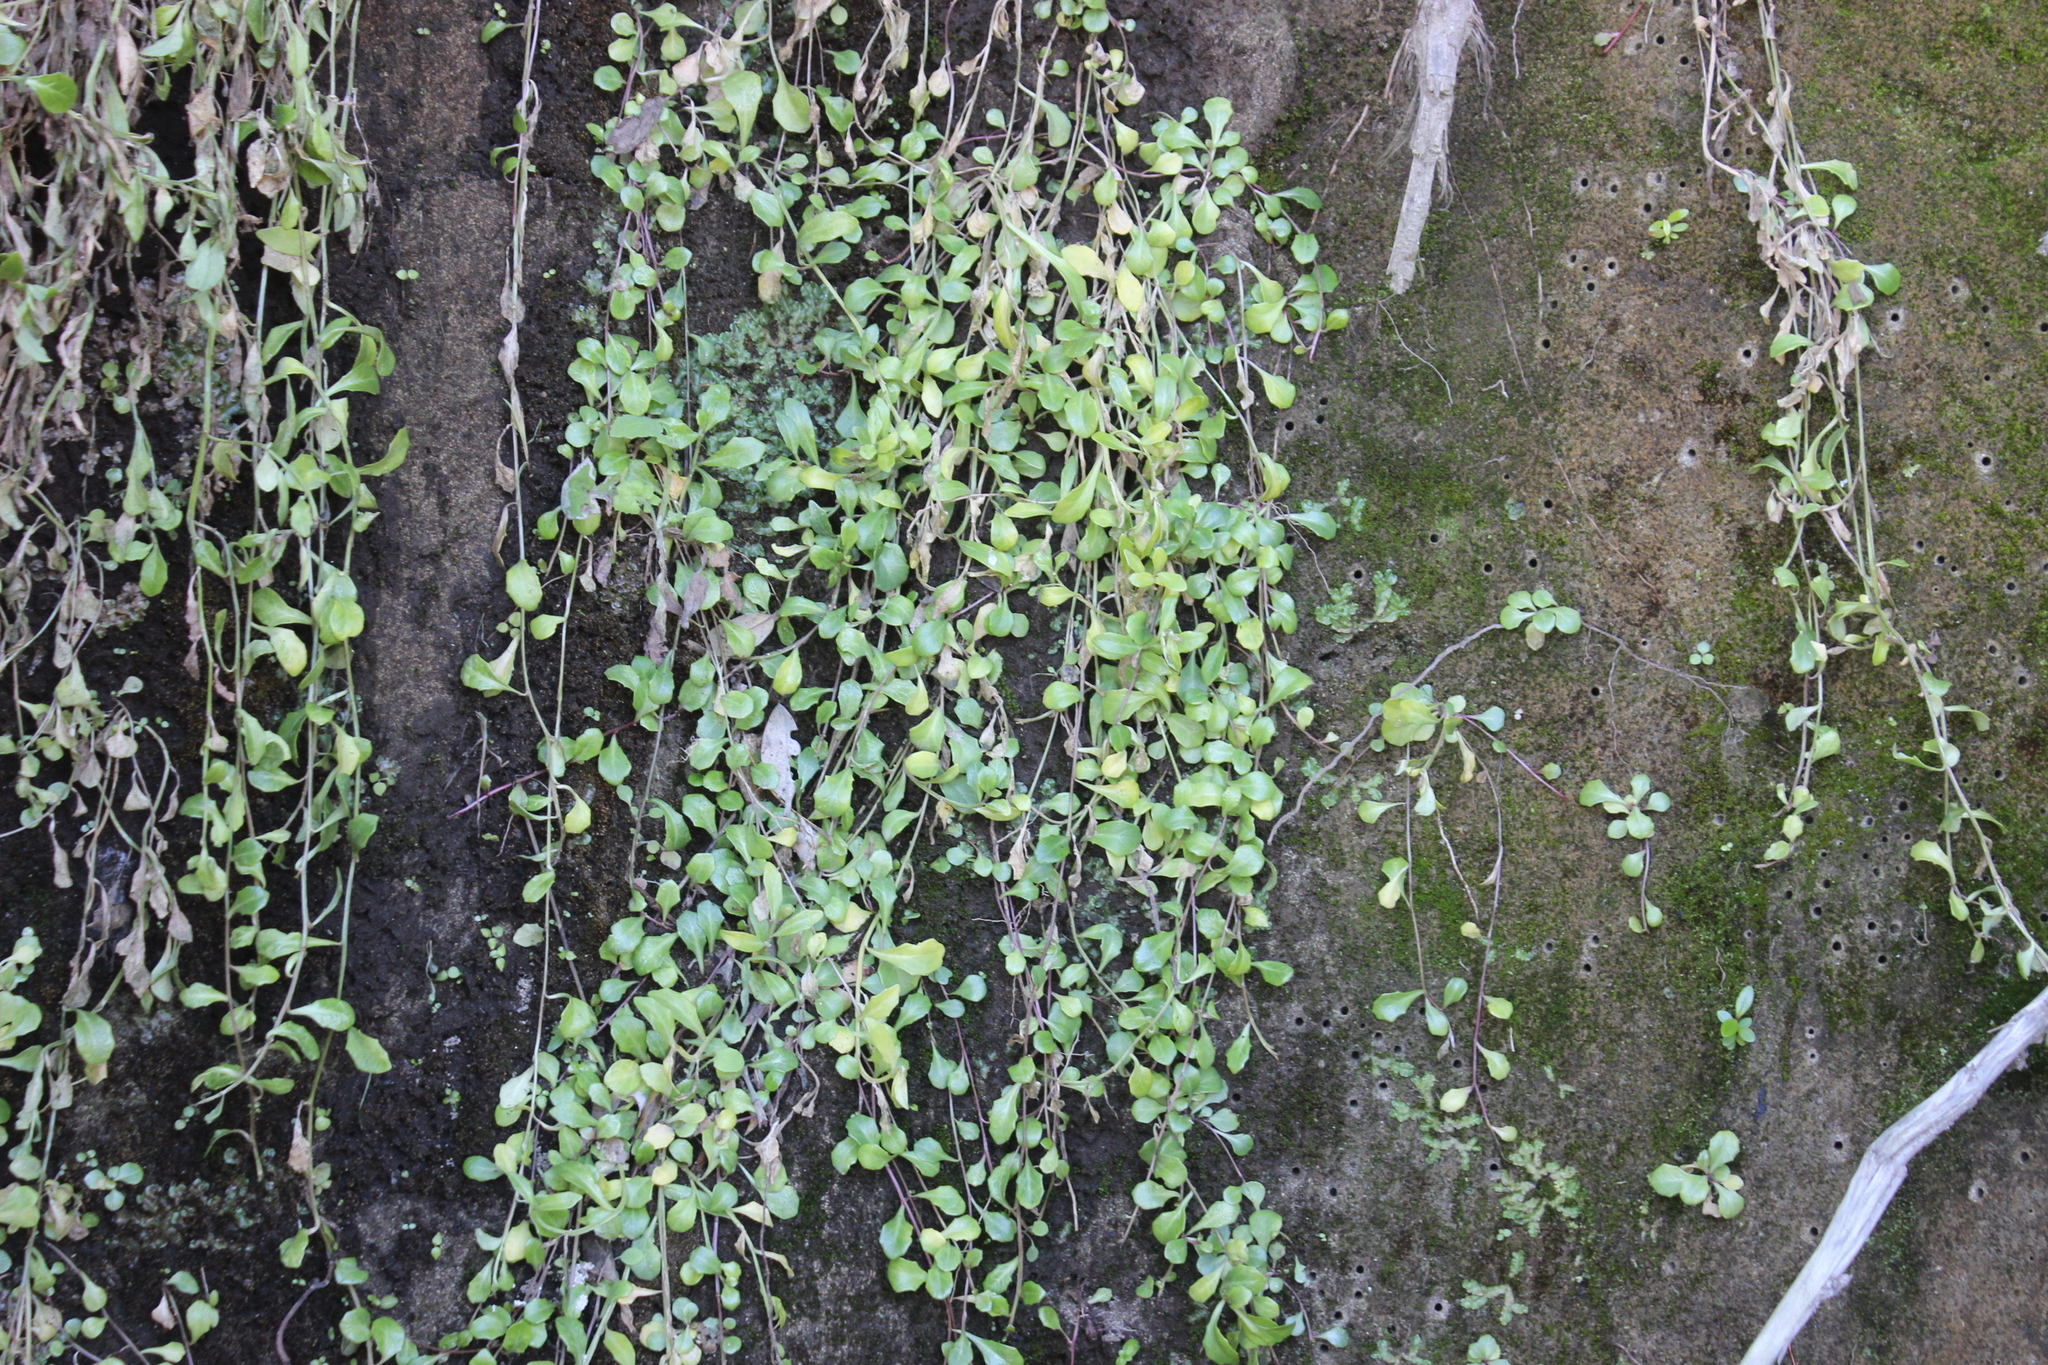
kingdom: Plantae
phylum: Tracheophyta
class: Magnoliopsida
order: Asterales
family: Campanulaceae
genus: Lobelia
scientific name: Lobelia anceps
